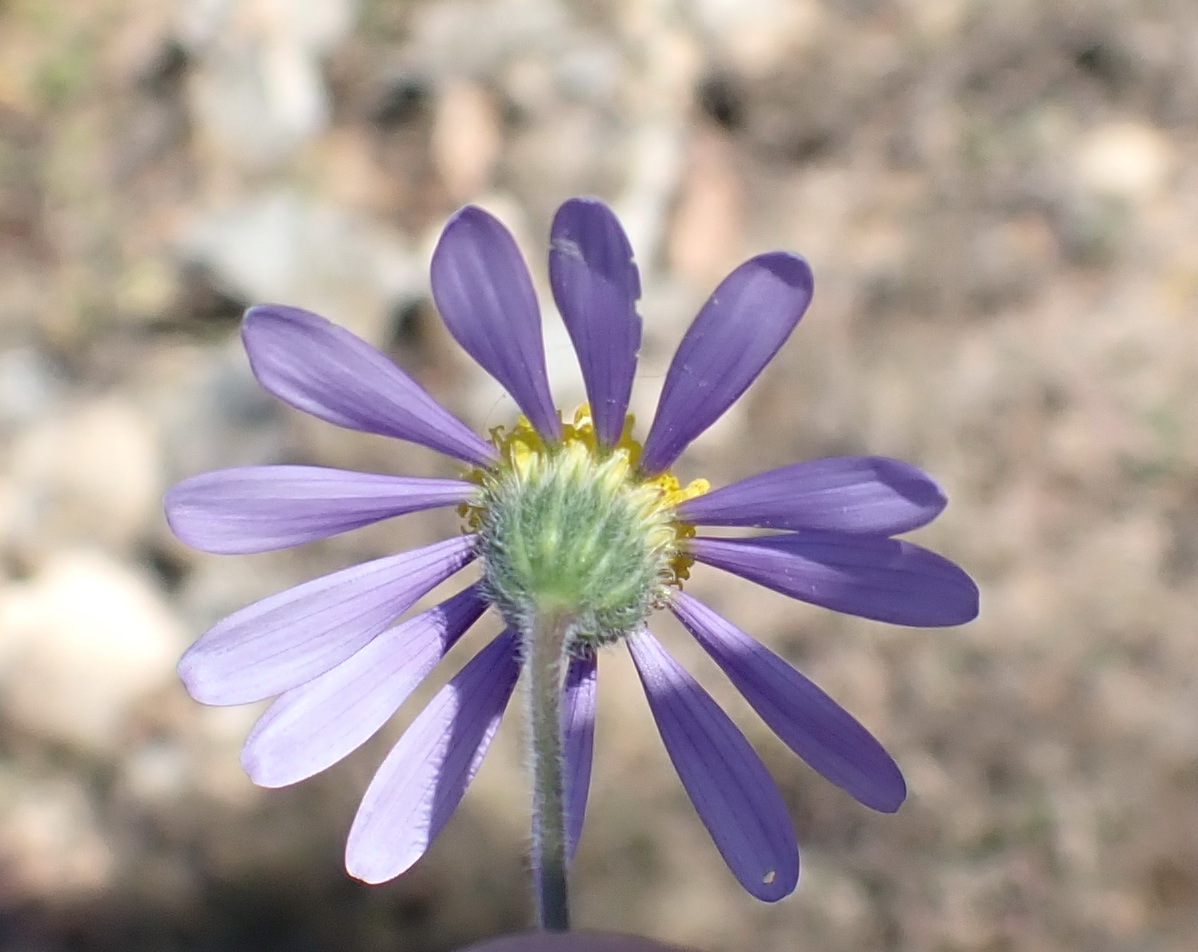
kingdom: Plantae
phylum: Tracheophyta
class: Magnoliopsida
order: Asterales
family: Asteraceae
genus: Felicia
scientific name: Felicia ovata
